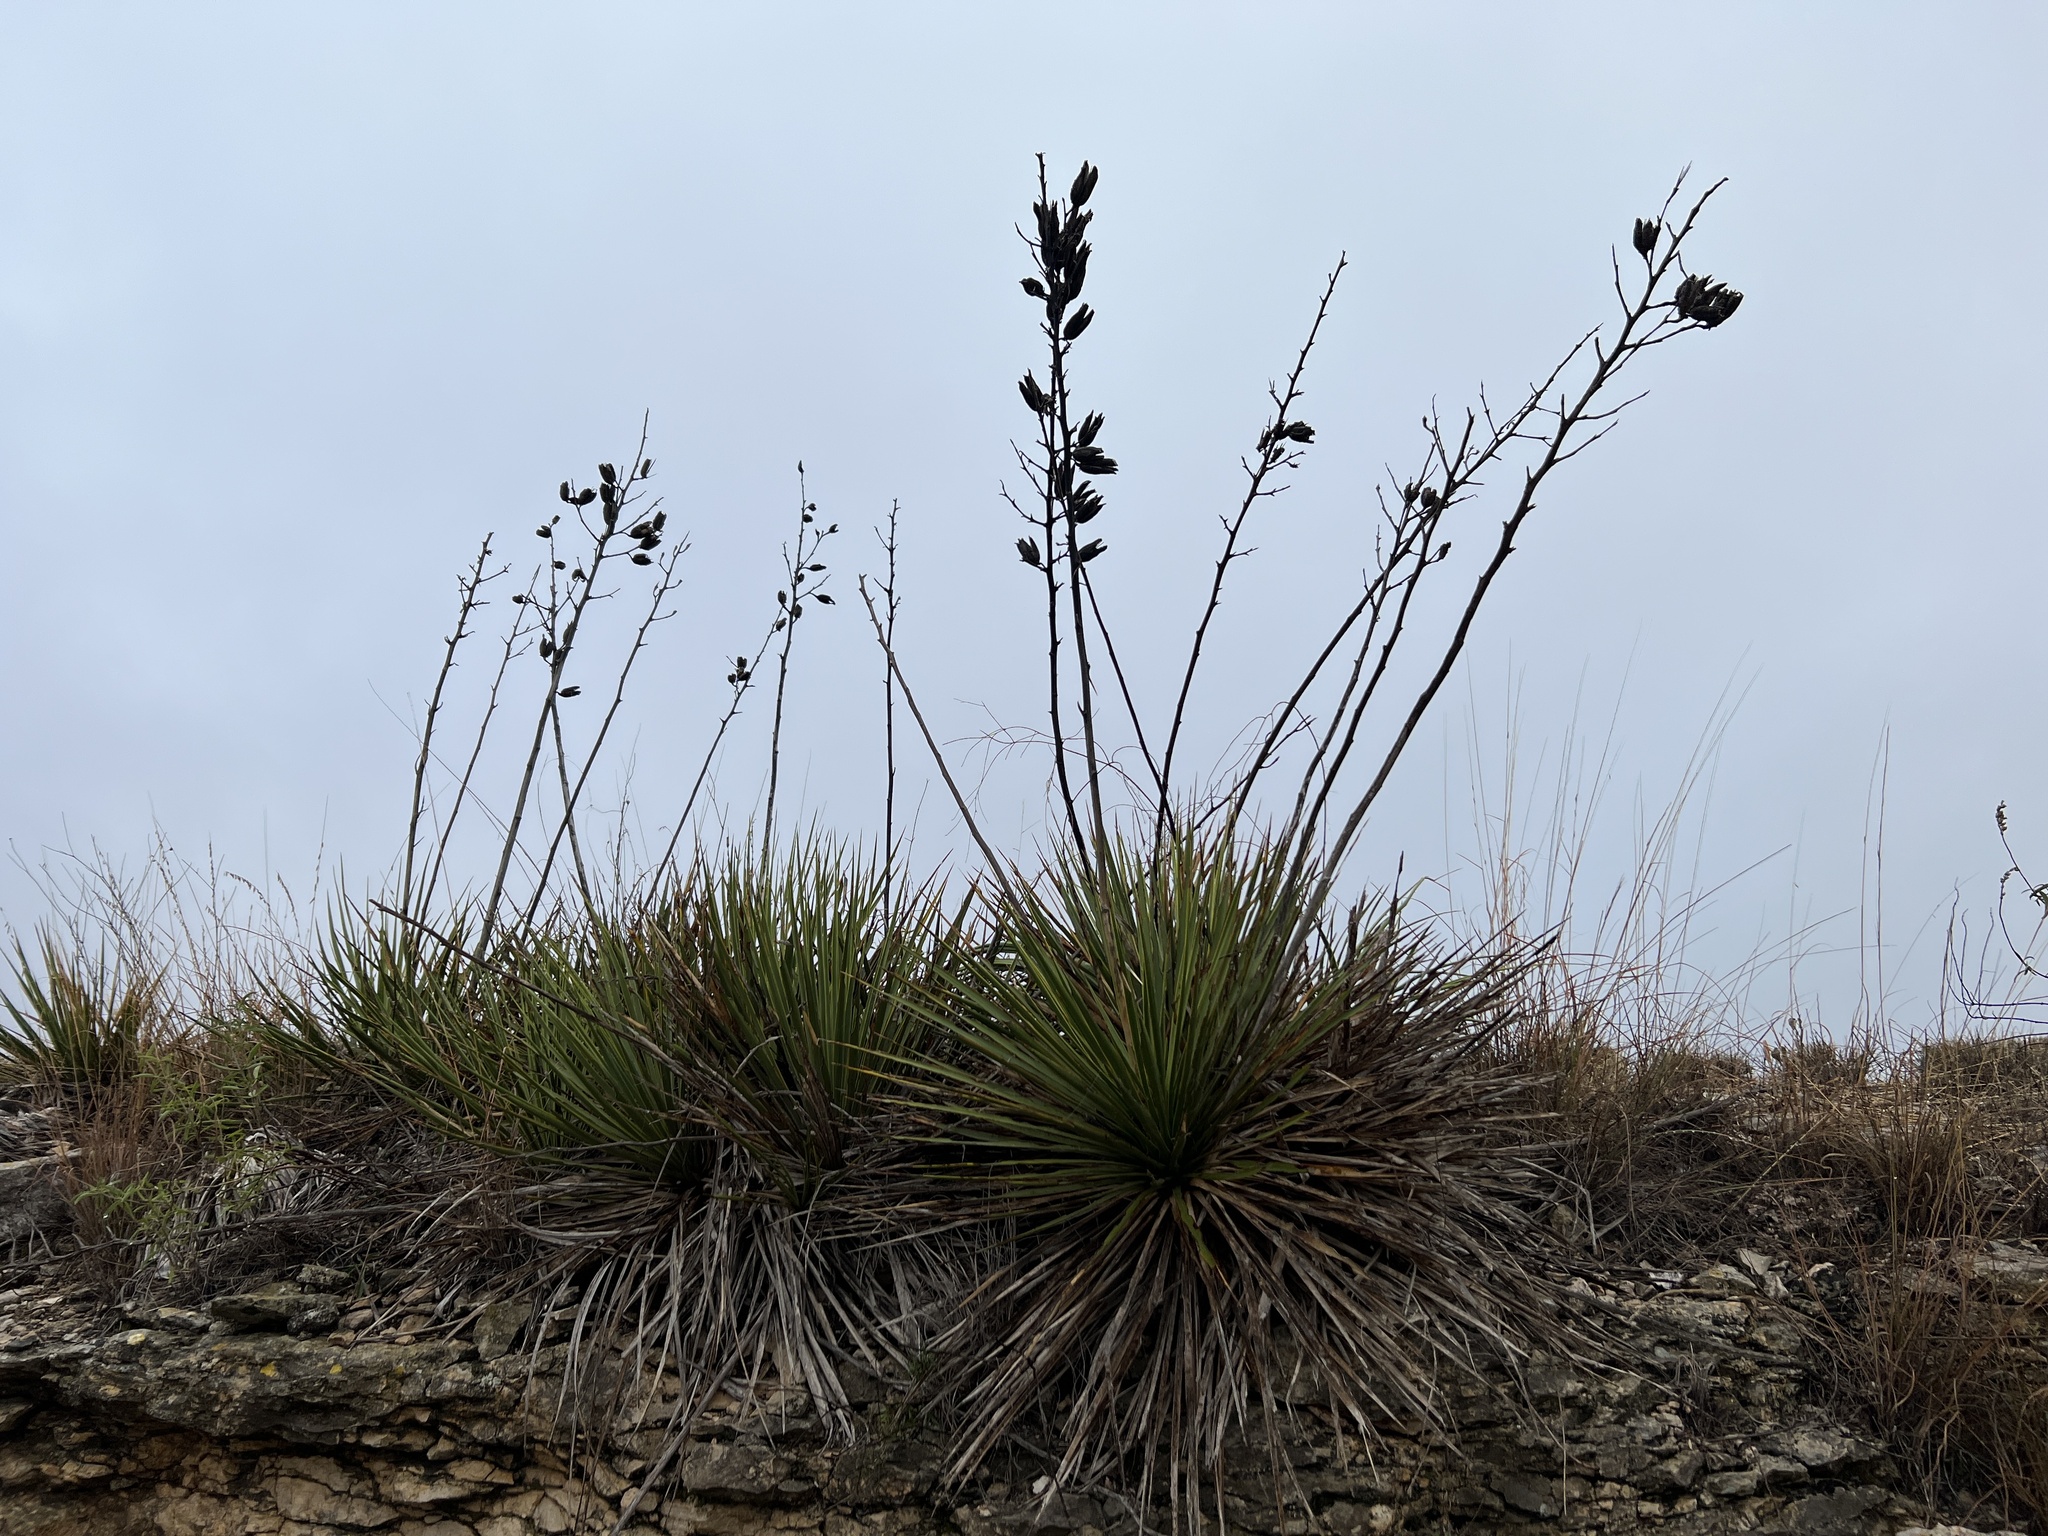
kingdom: Plantae
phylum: Tracheophyta
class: Liliopsida
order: Asparagales
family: Asparagaceae
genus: Yucca
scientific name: Yucca reverchonii
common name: San angelo yucca
